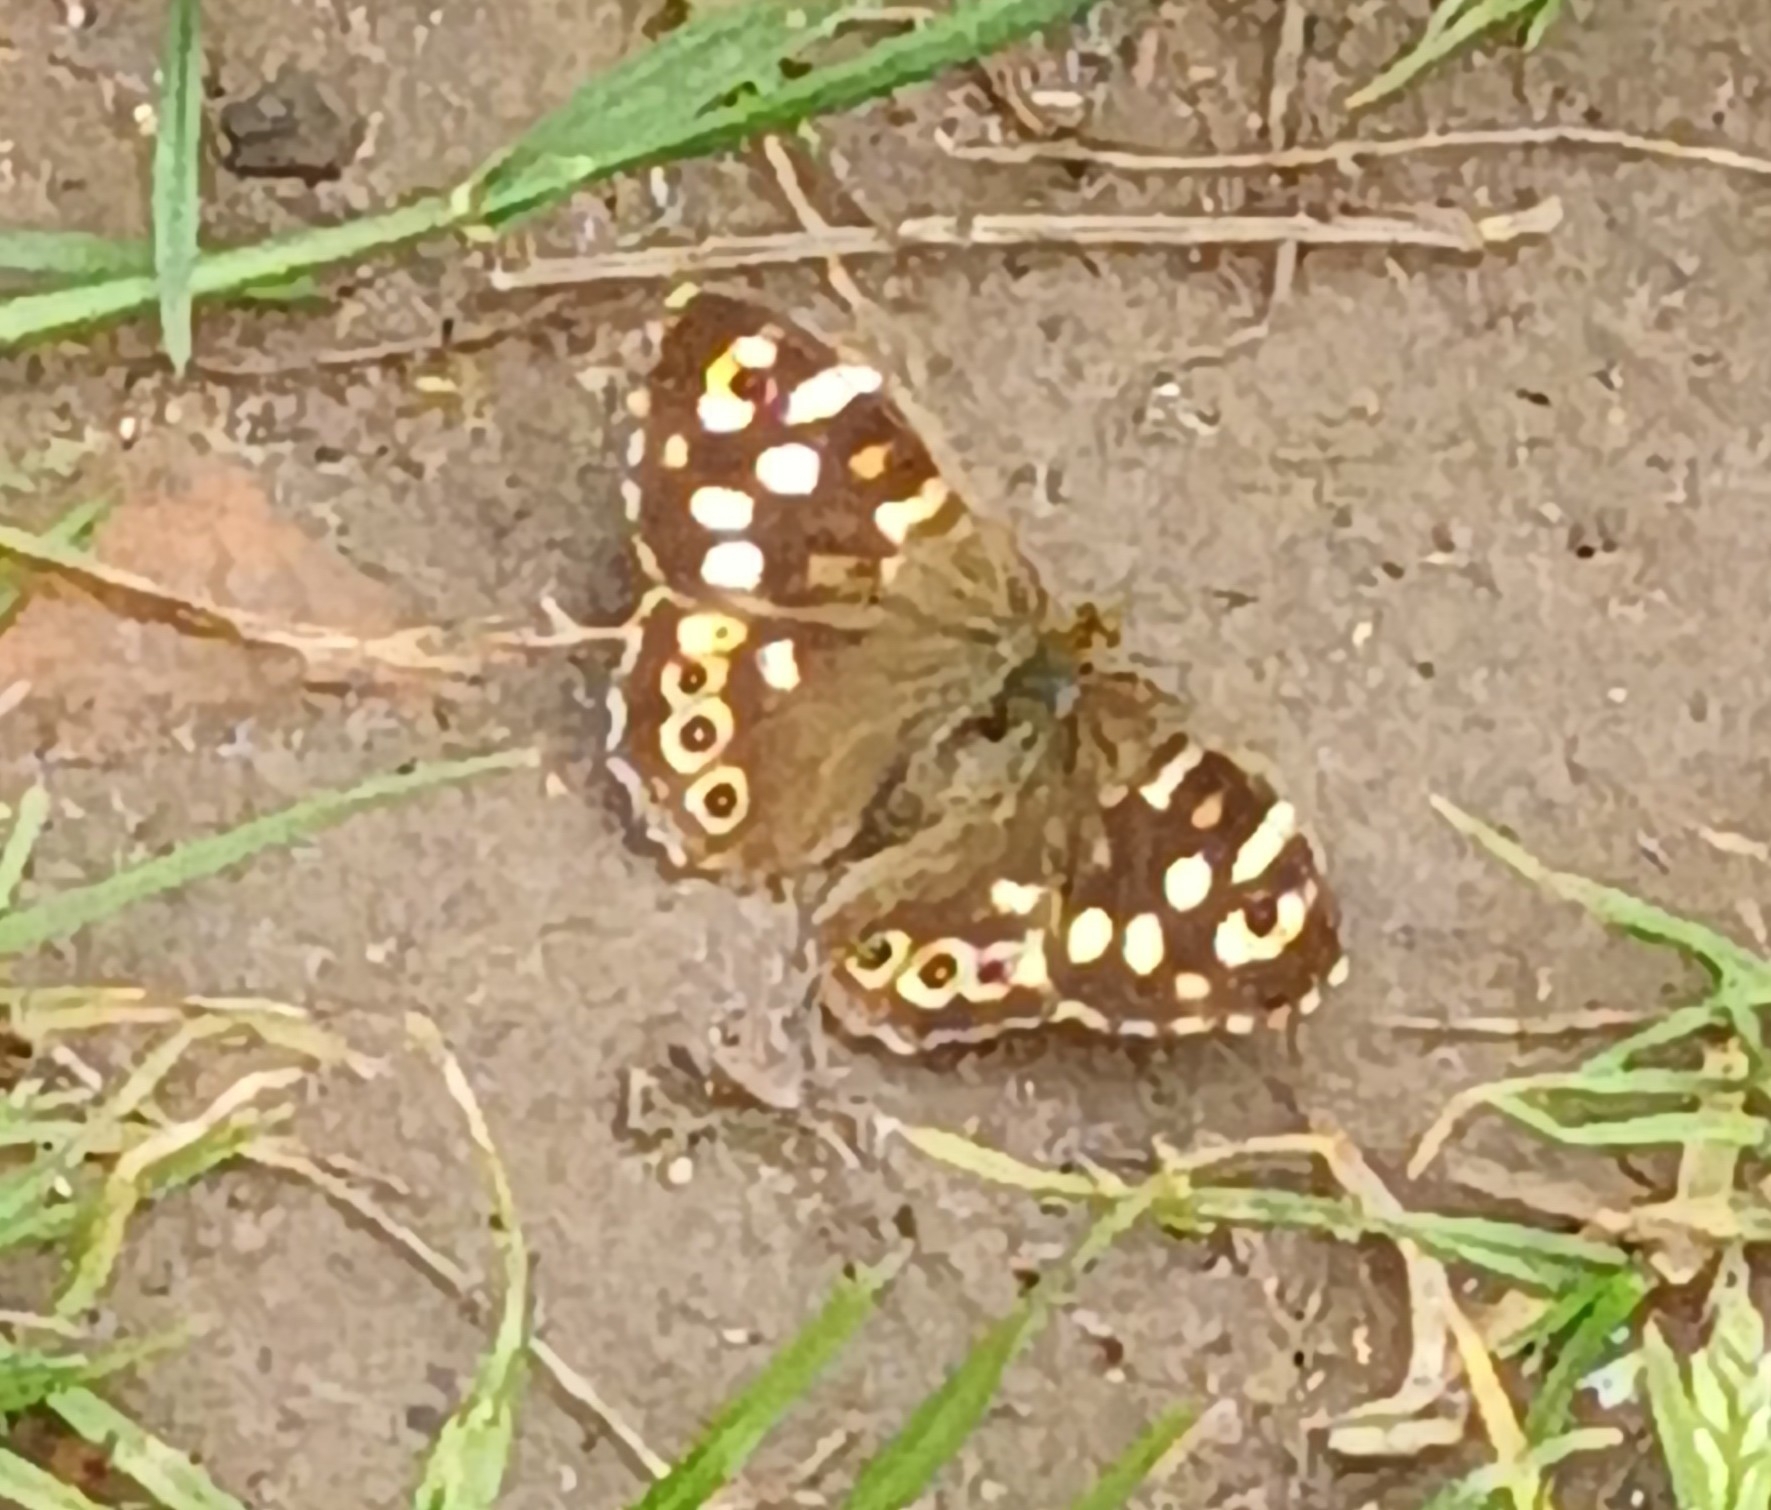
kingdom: Animalia
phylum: Arthropoda
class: Insecta
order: Lepidoptera
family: Nymphalidae
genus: Pararge
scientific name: Pararge aegeria
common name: Speckled wood
